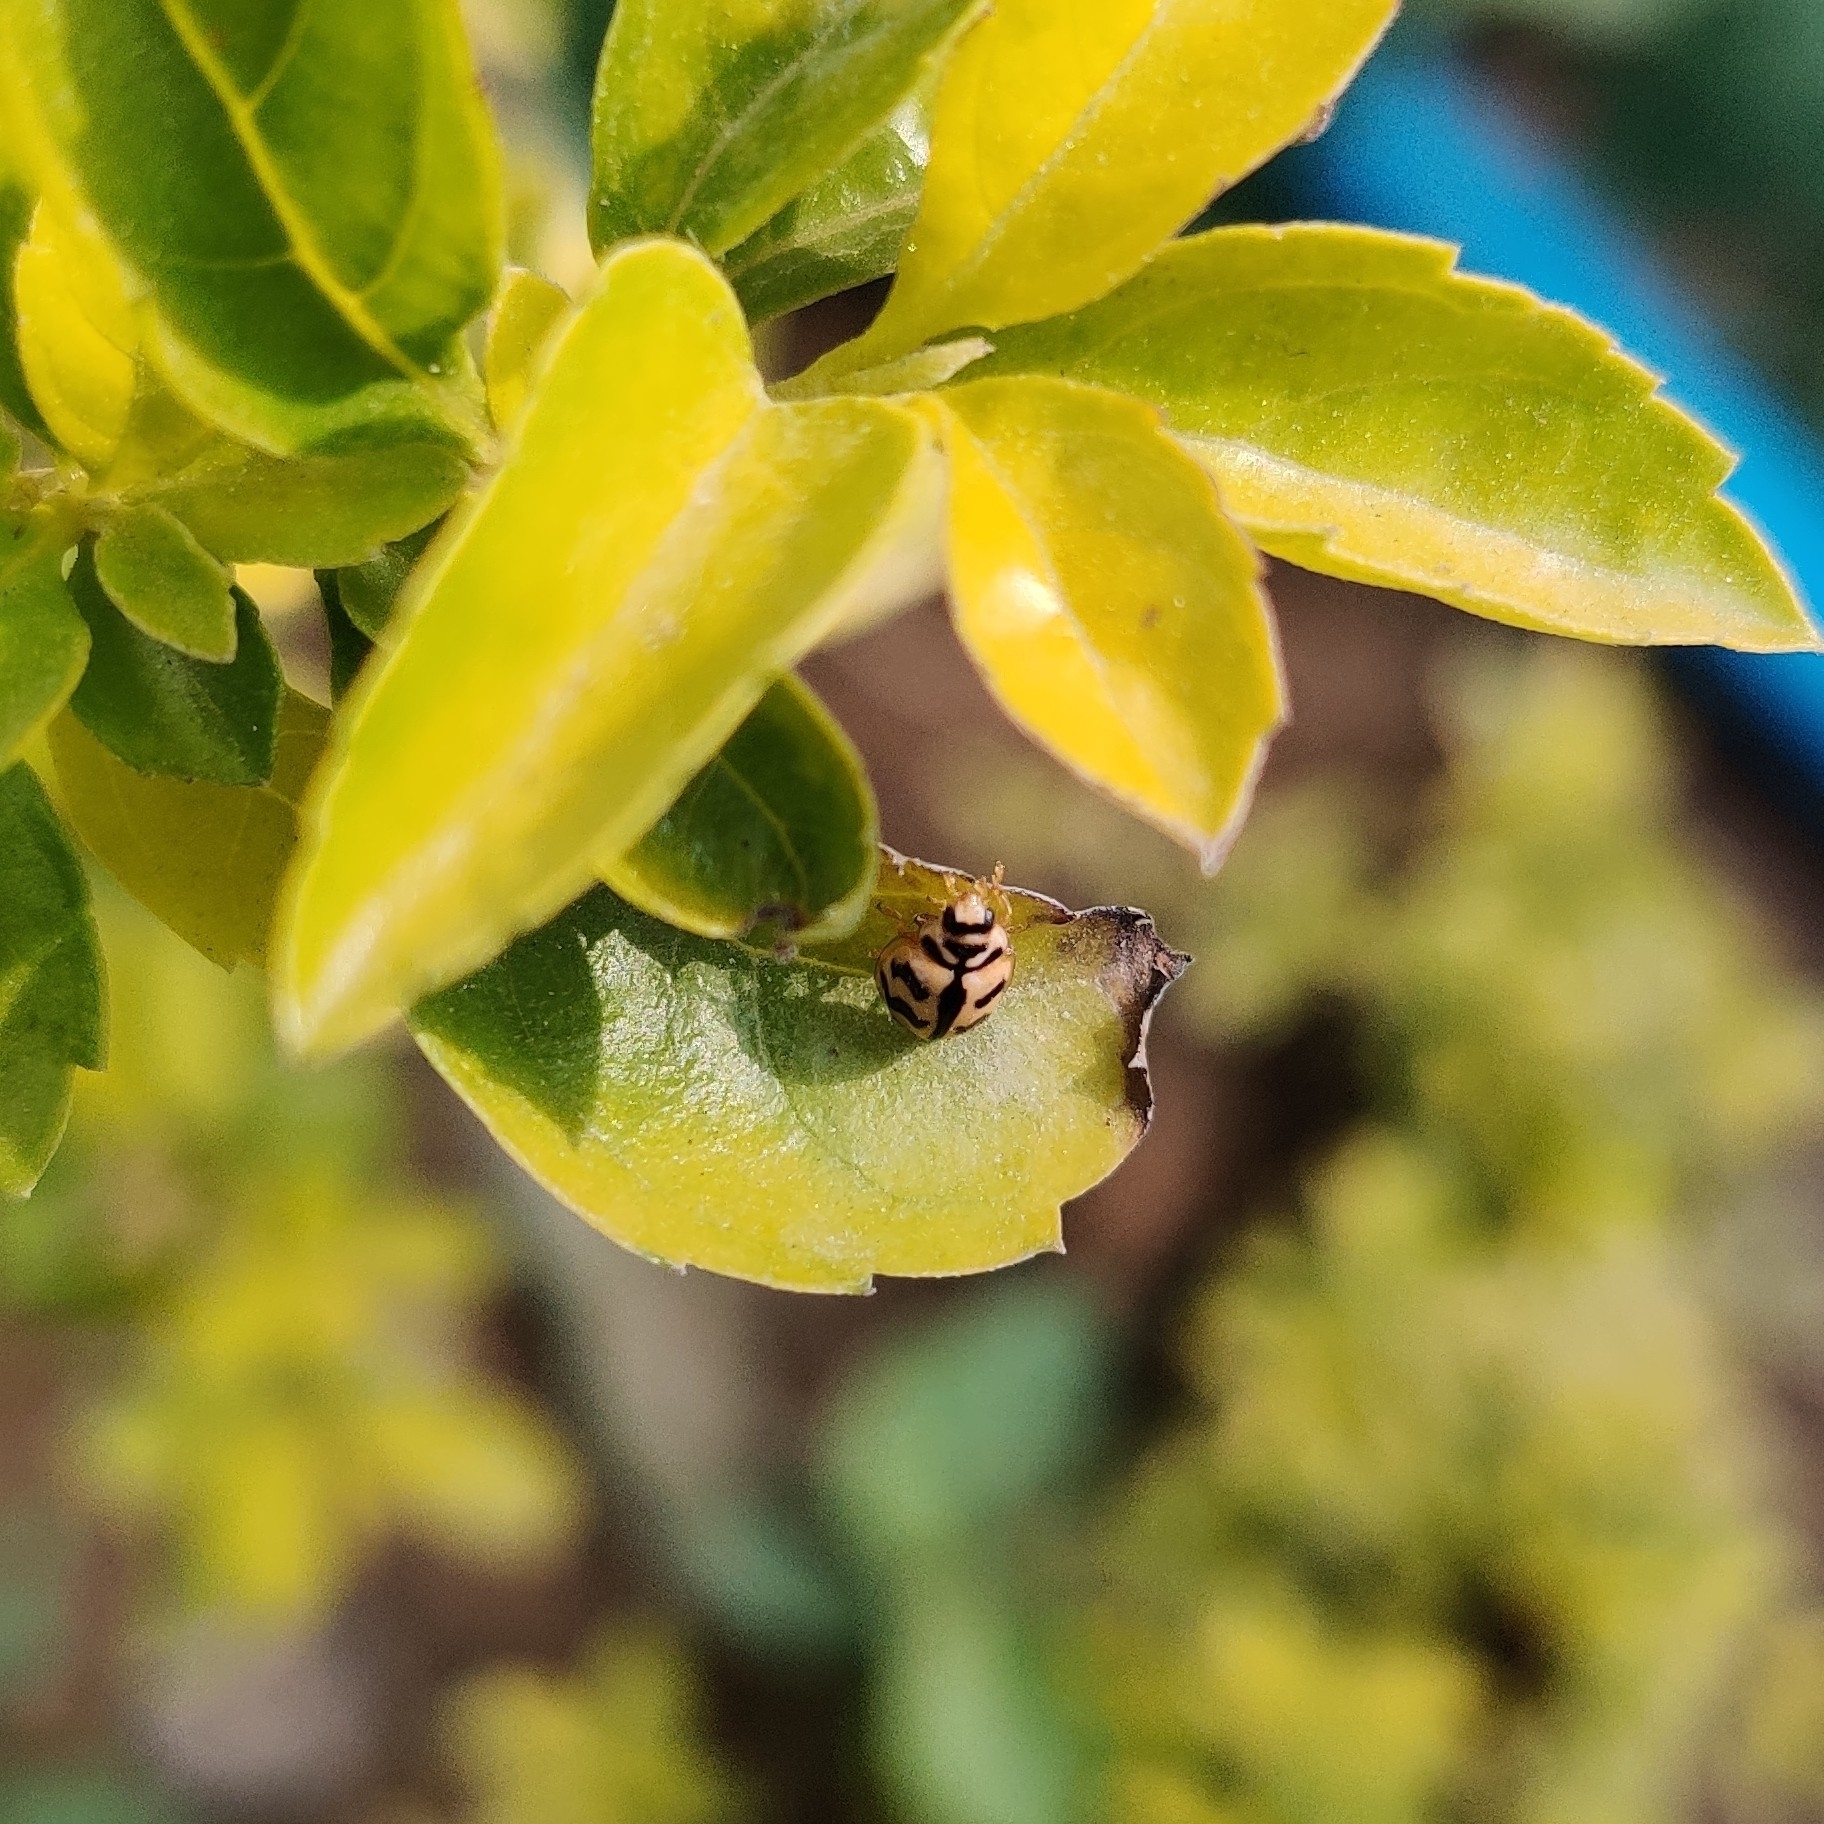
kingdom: Animalia
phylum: Arthropoda
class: Insecta
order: Coleoptera
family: Coccinellidae
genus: Cheilomenes
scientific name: Cheilomenes sexmaculata
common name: Ladybird beetle
